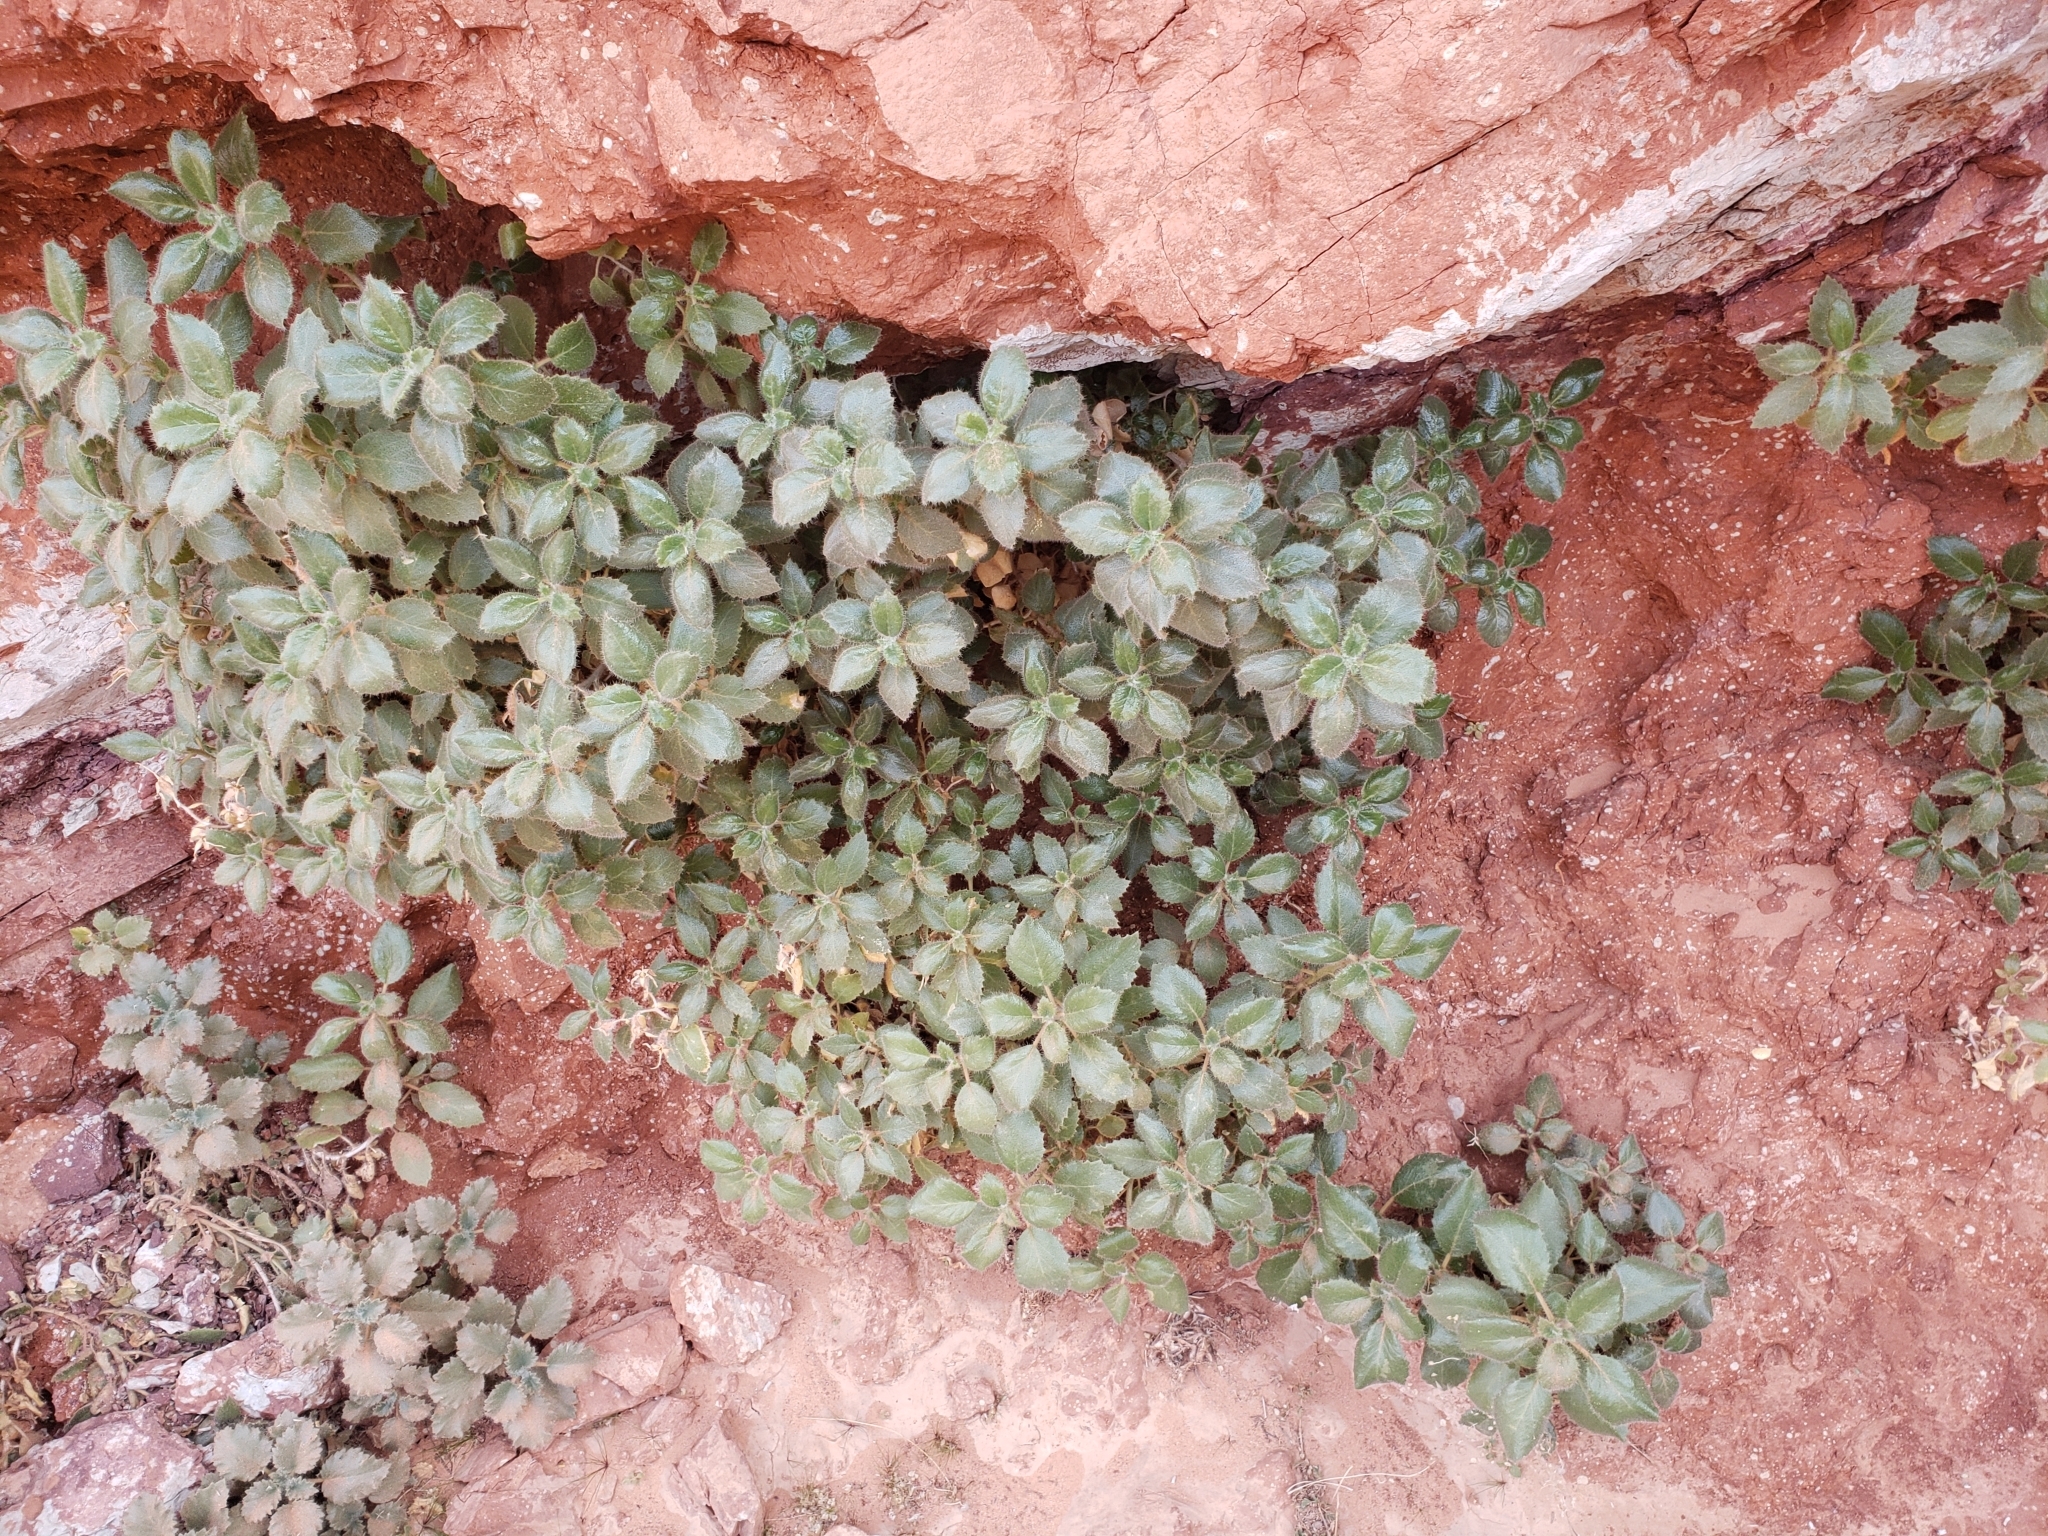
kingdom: Plantae
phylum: Tracheophyta
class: Magnoliopsida
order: Cornales
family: Loasaceae
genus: Eucnide
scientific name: Eucnide urens
